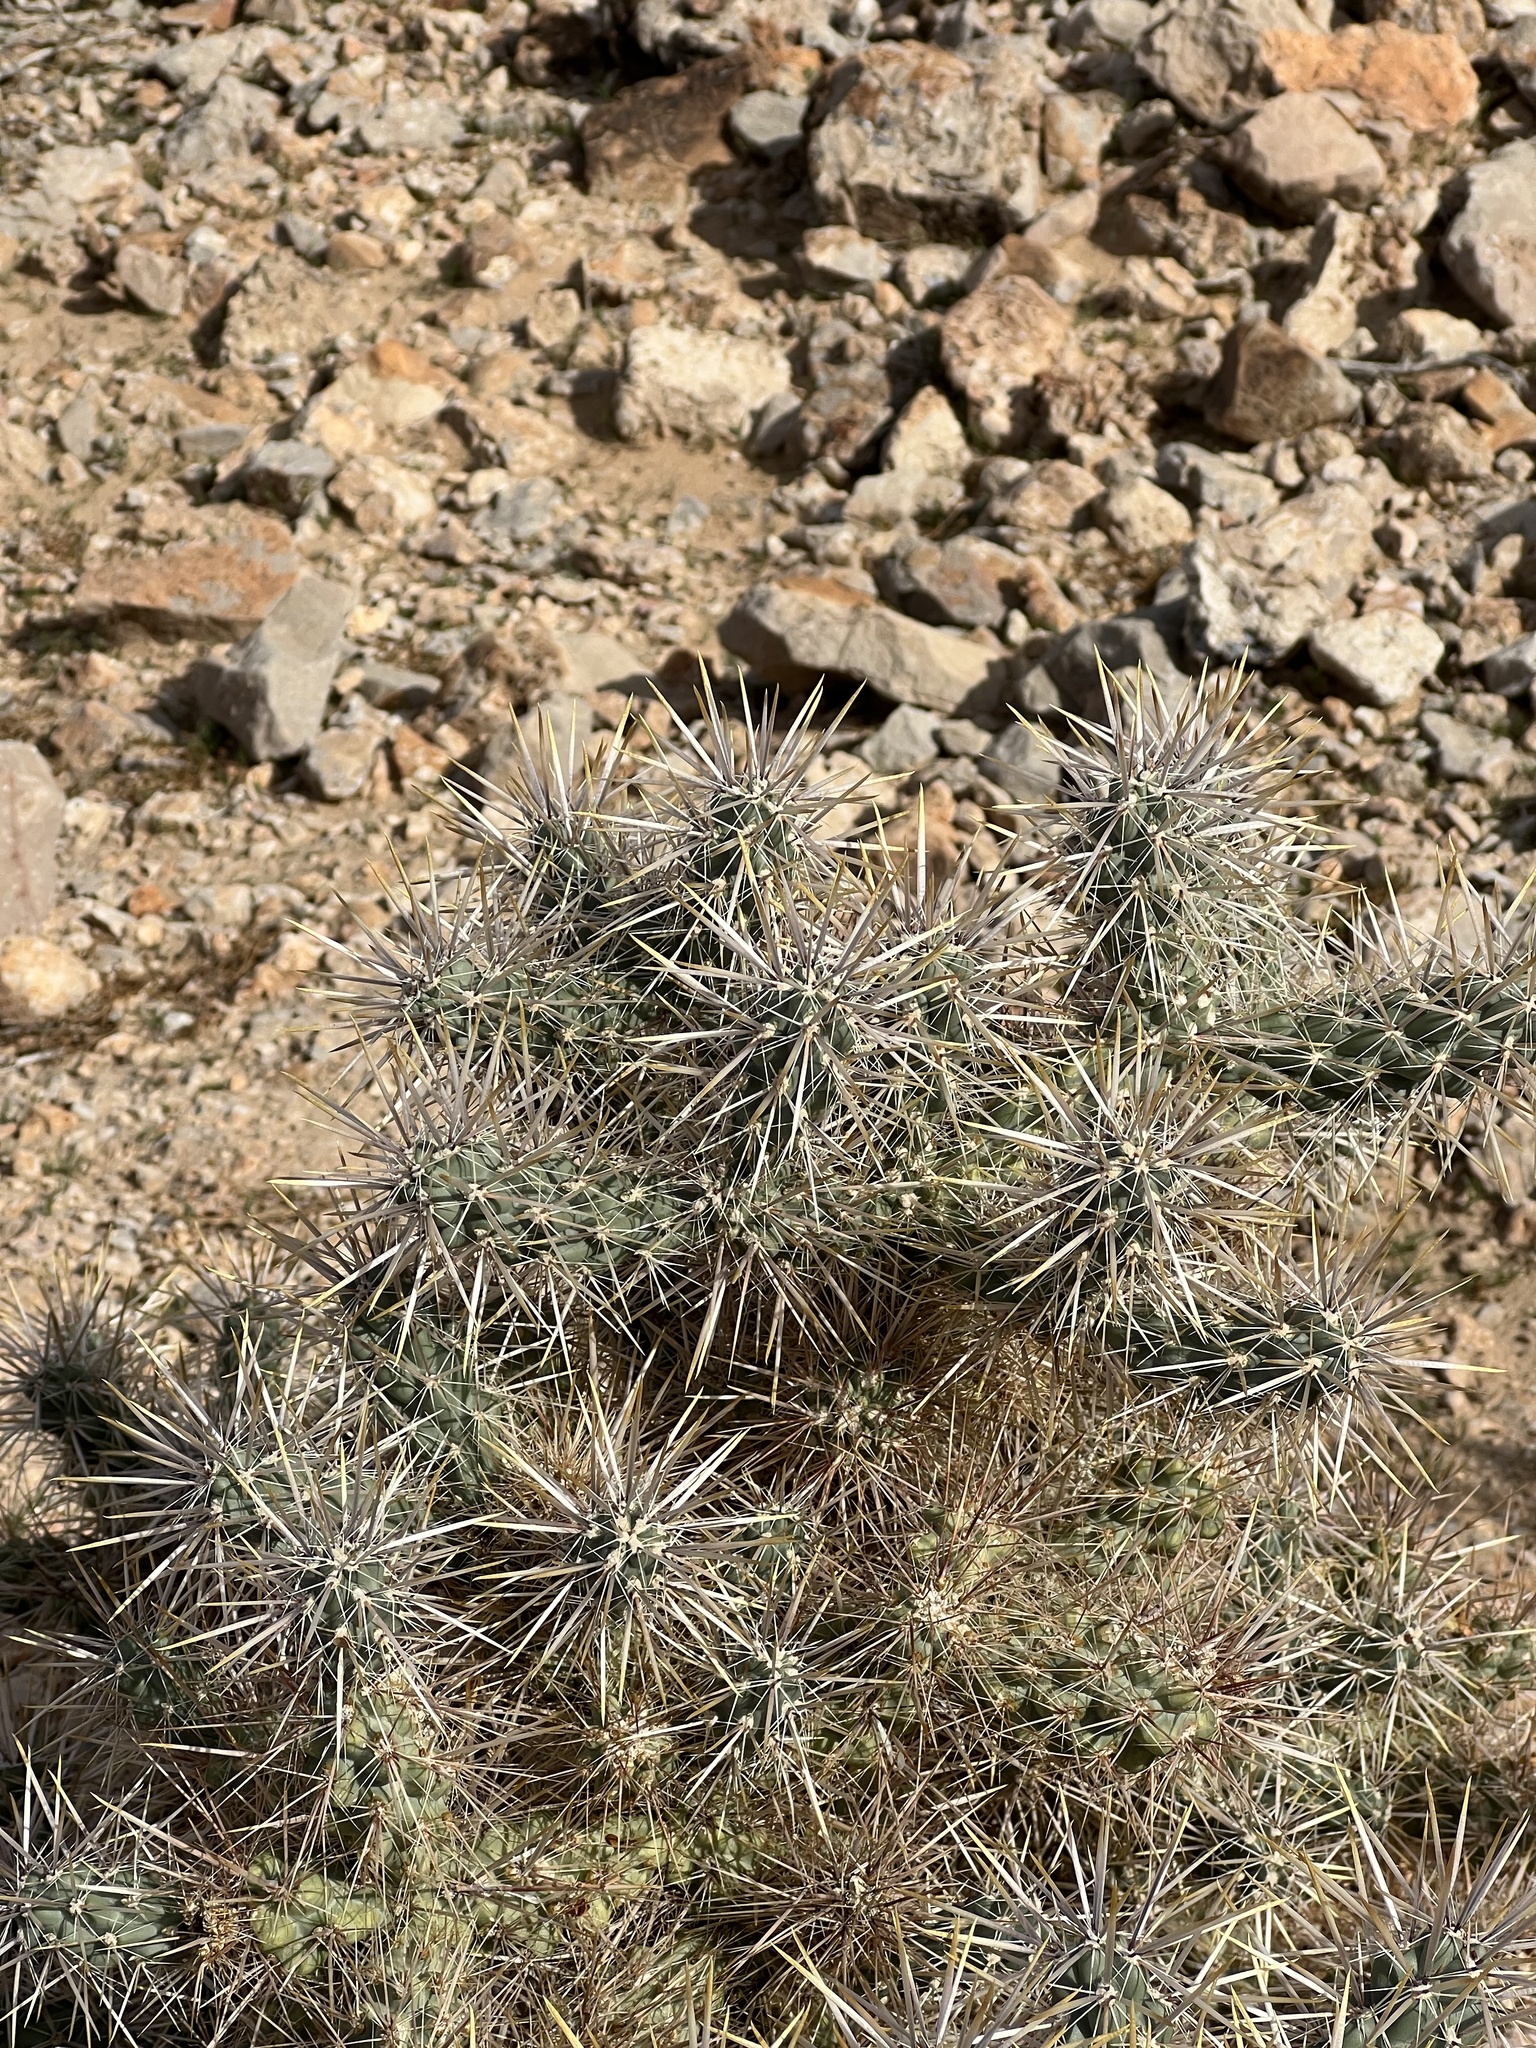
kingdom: Plantae
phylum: Tracheophyta
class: Magnoliopsida
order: Caryophyllales
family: Cactaceae
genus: Cylindropuntia
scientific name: Cylindropuntia echinocarpa
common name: Ground cholla
